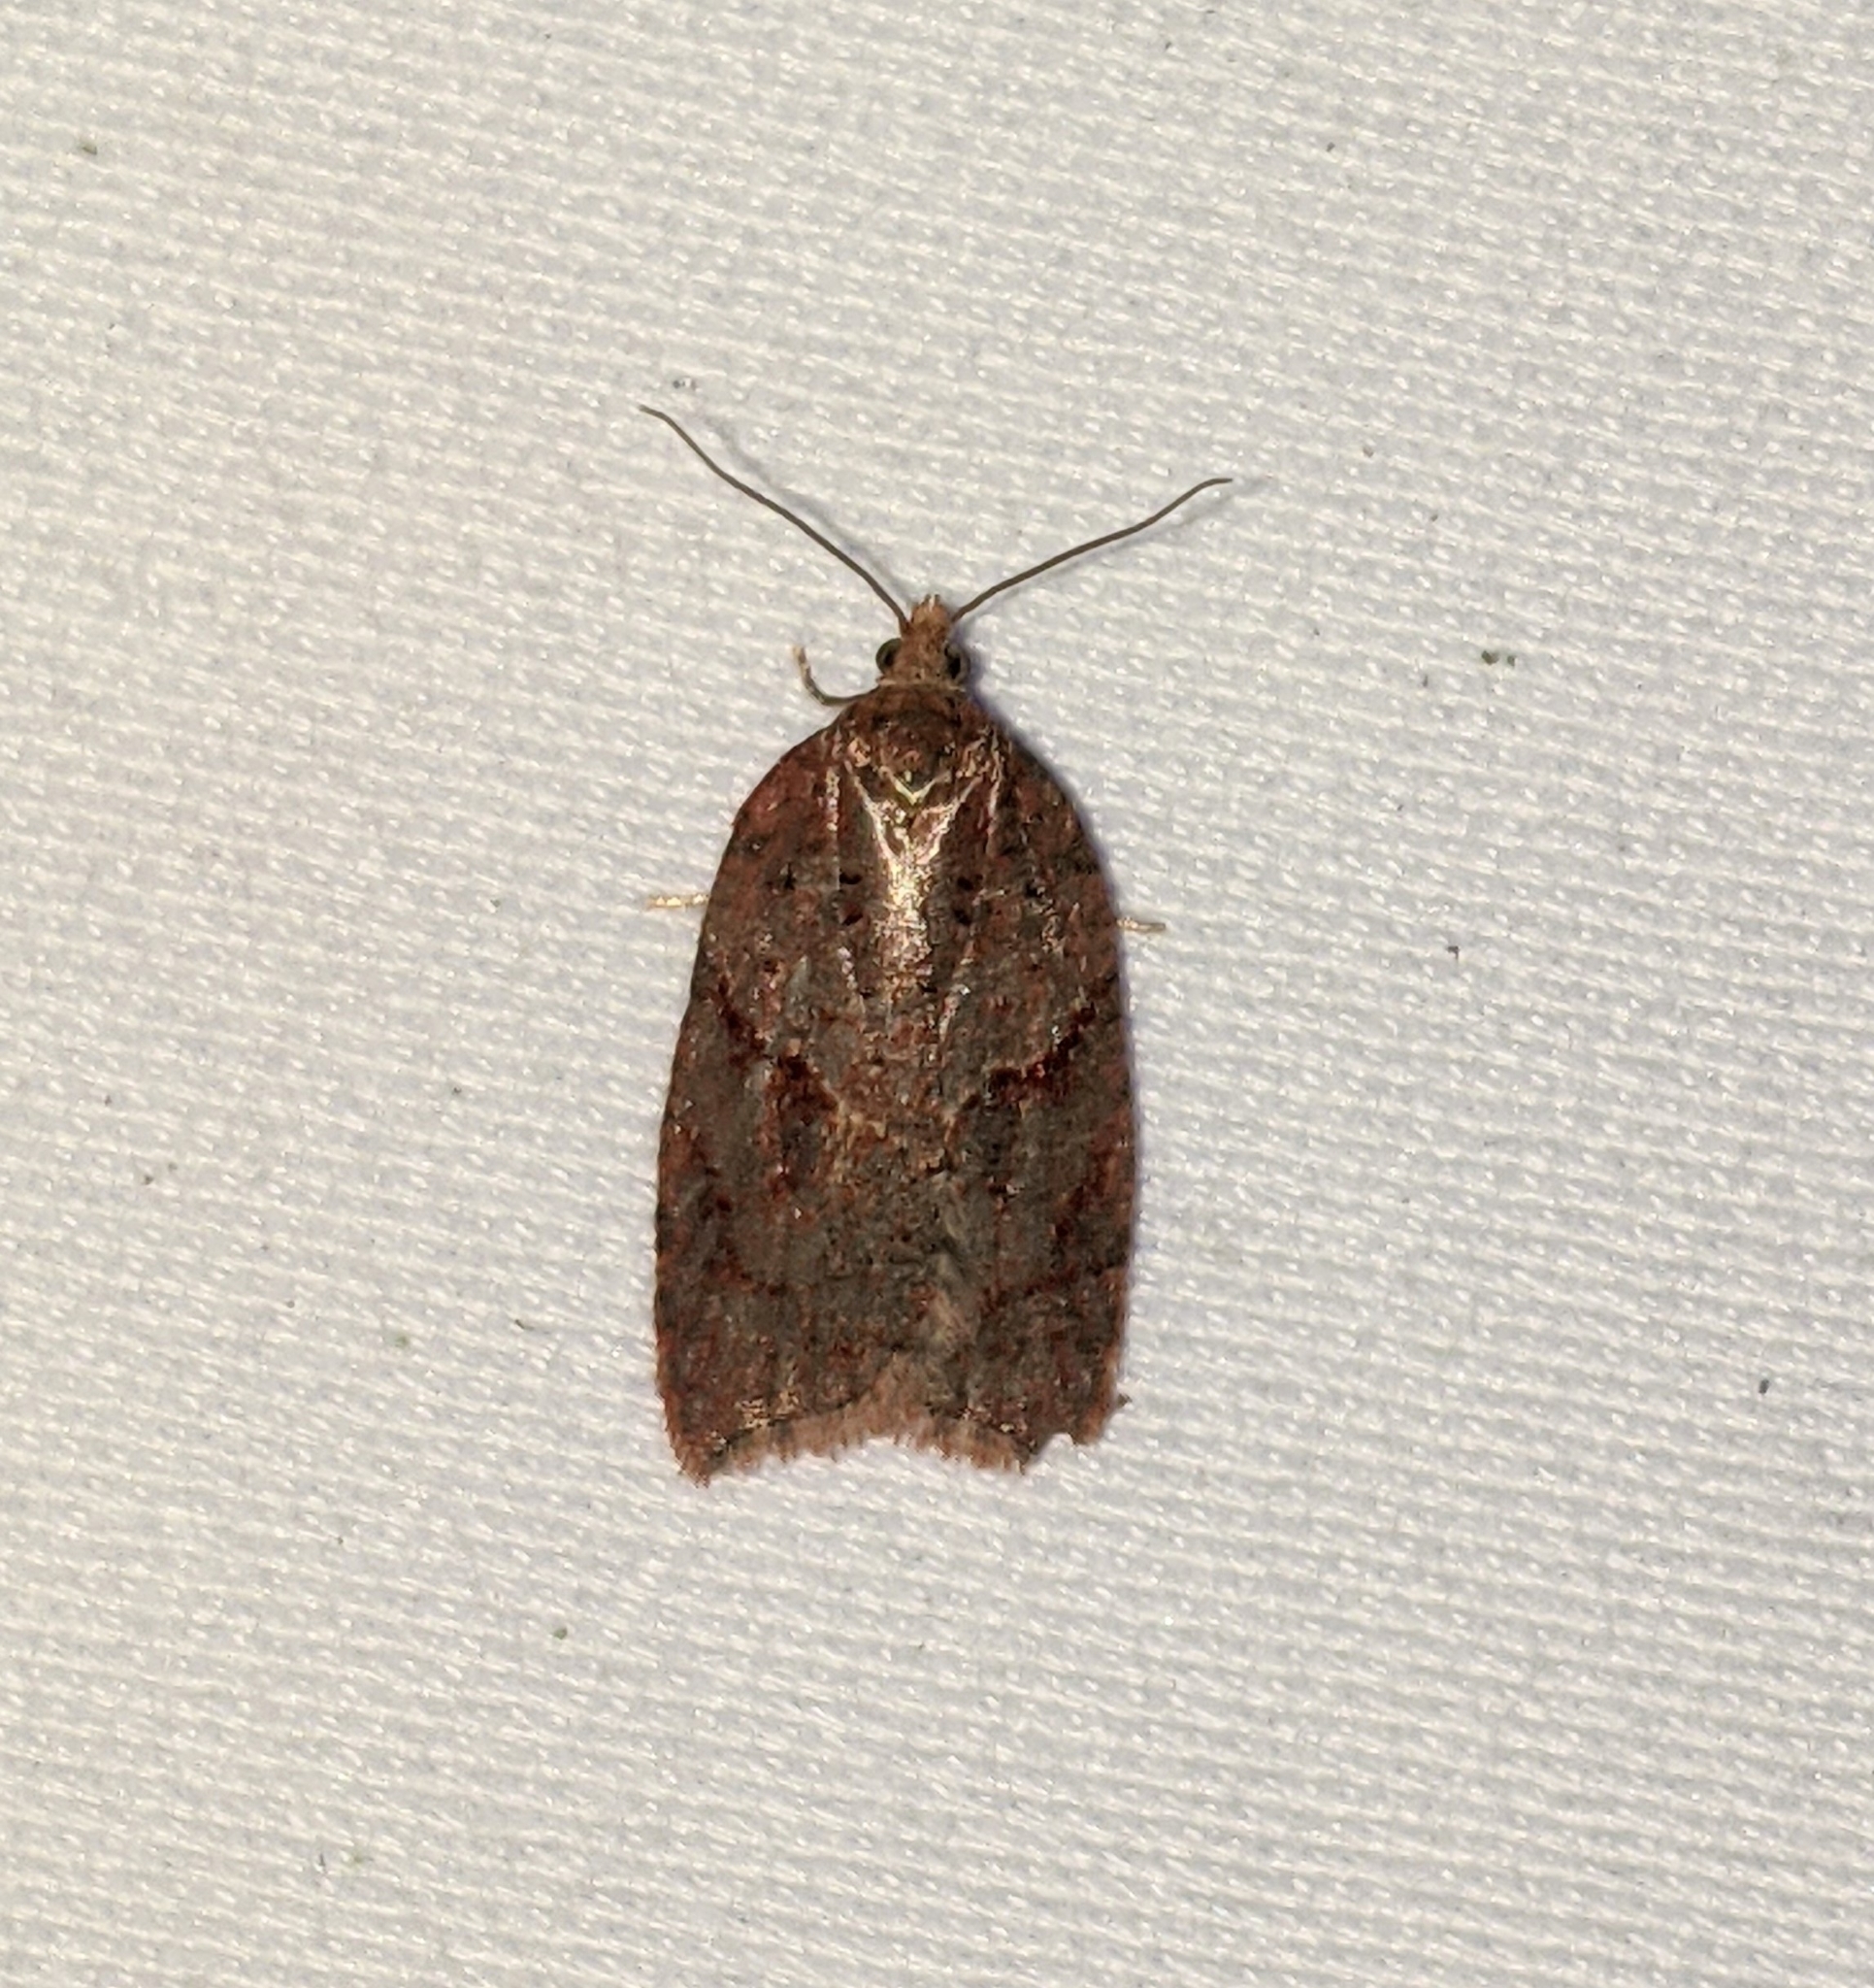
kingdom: Animalia
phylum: Arthropoda
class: Insecta
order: Lepidoptera
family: Tortricidae
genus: Acleris
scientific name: Acleris maccana
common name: Marbled button
